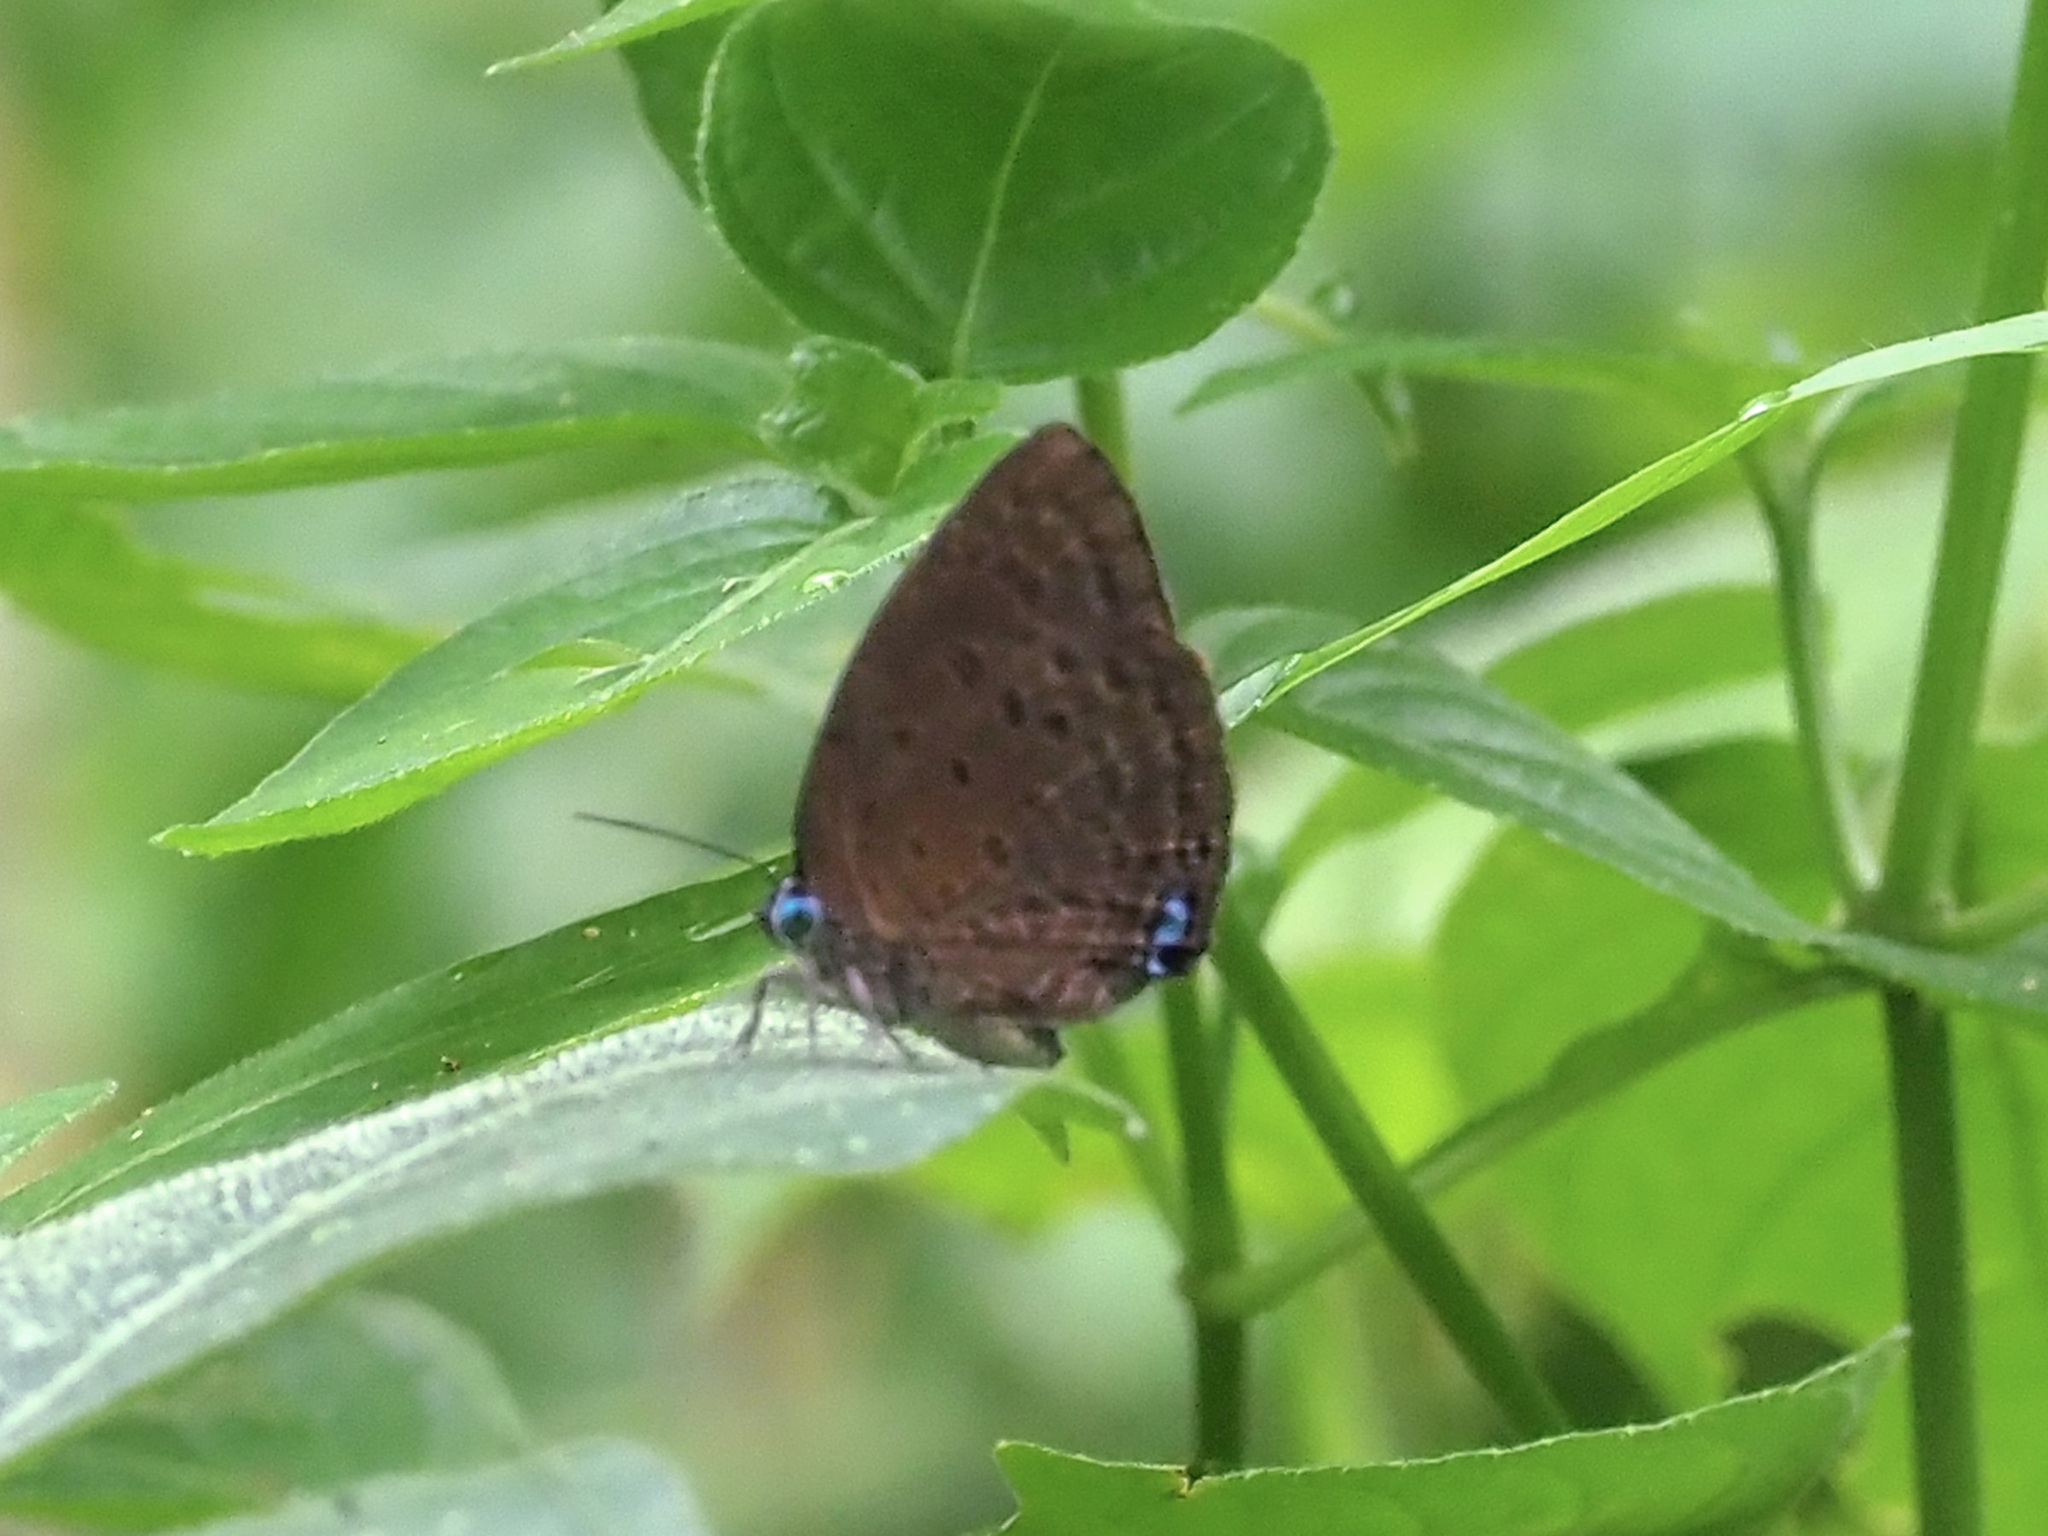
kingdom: Animalia
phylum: Arthropoda
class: Insecta
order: Lepidoptera
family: Lycaenidae
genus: Arhopala
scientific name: Arhopala major
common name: Major yellow oakblue
